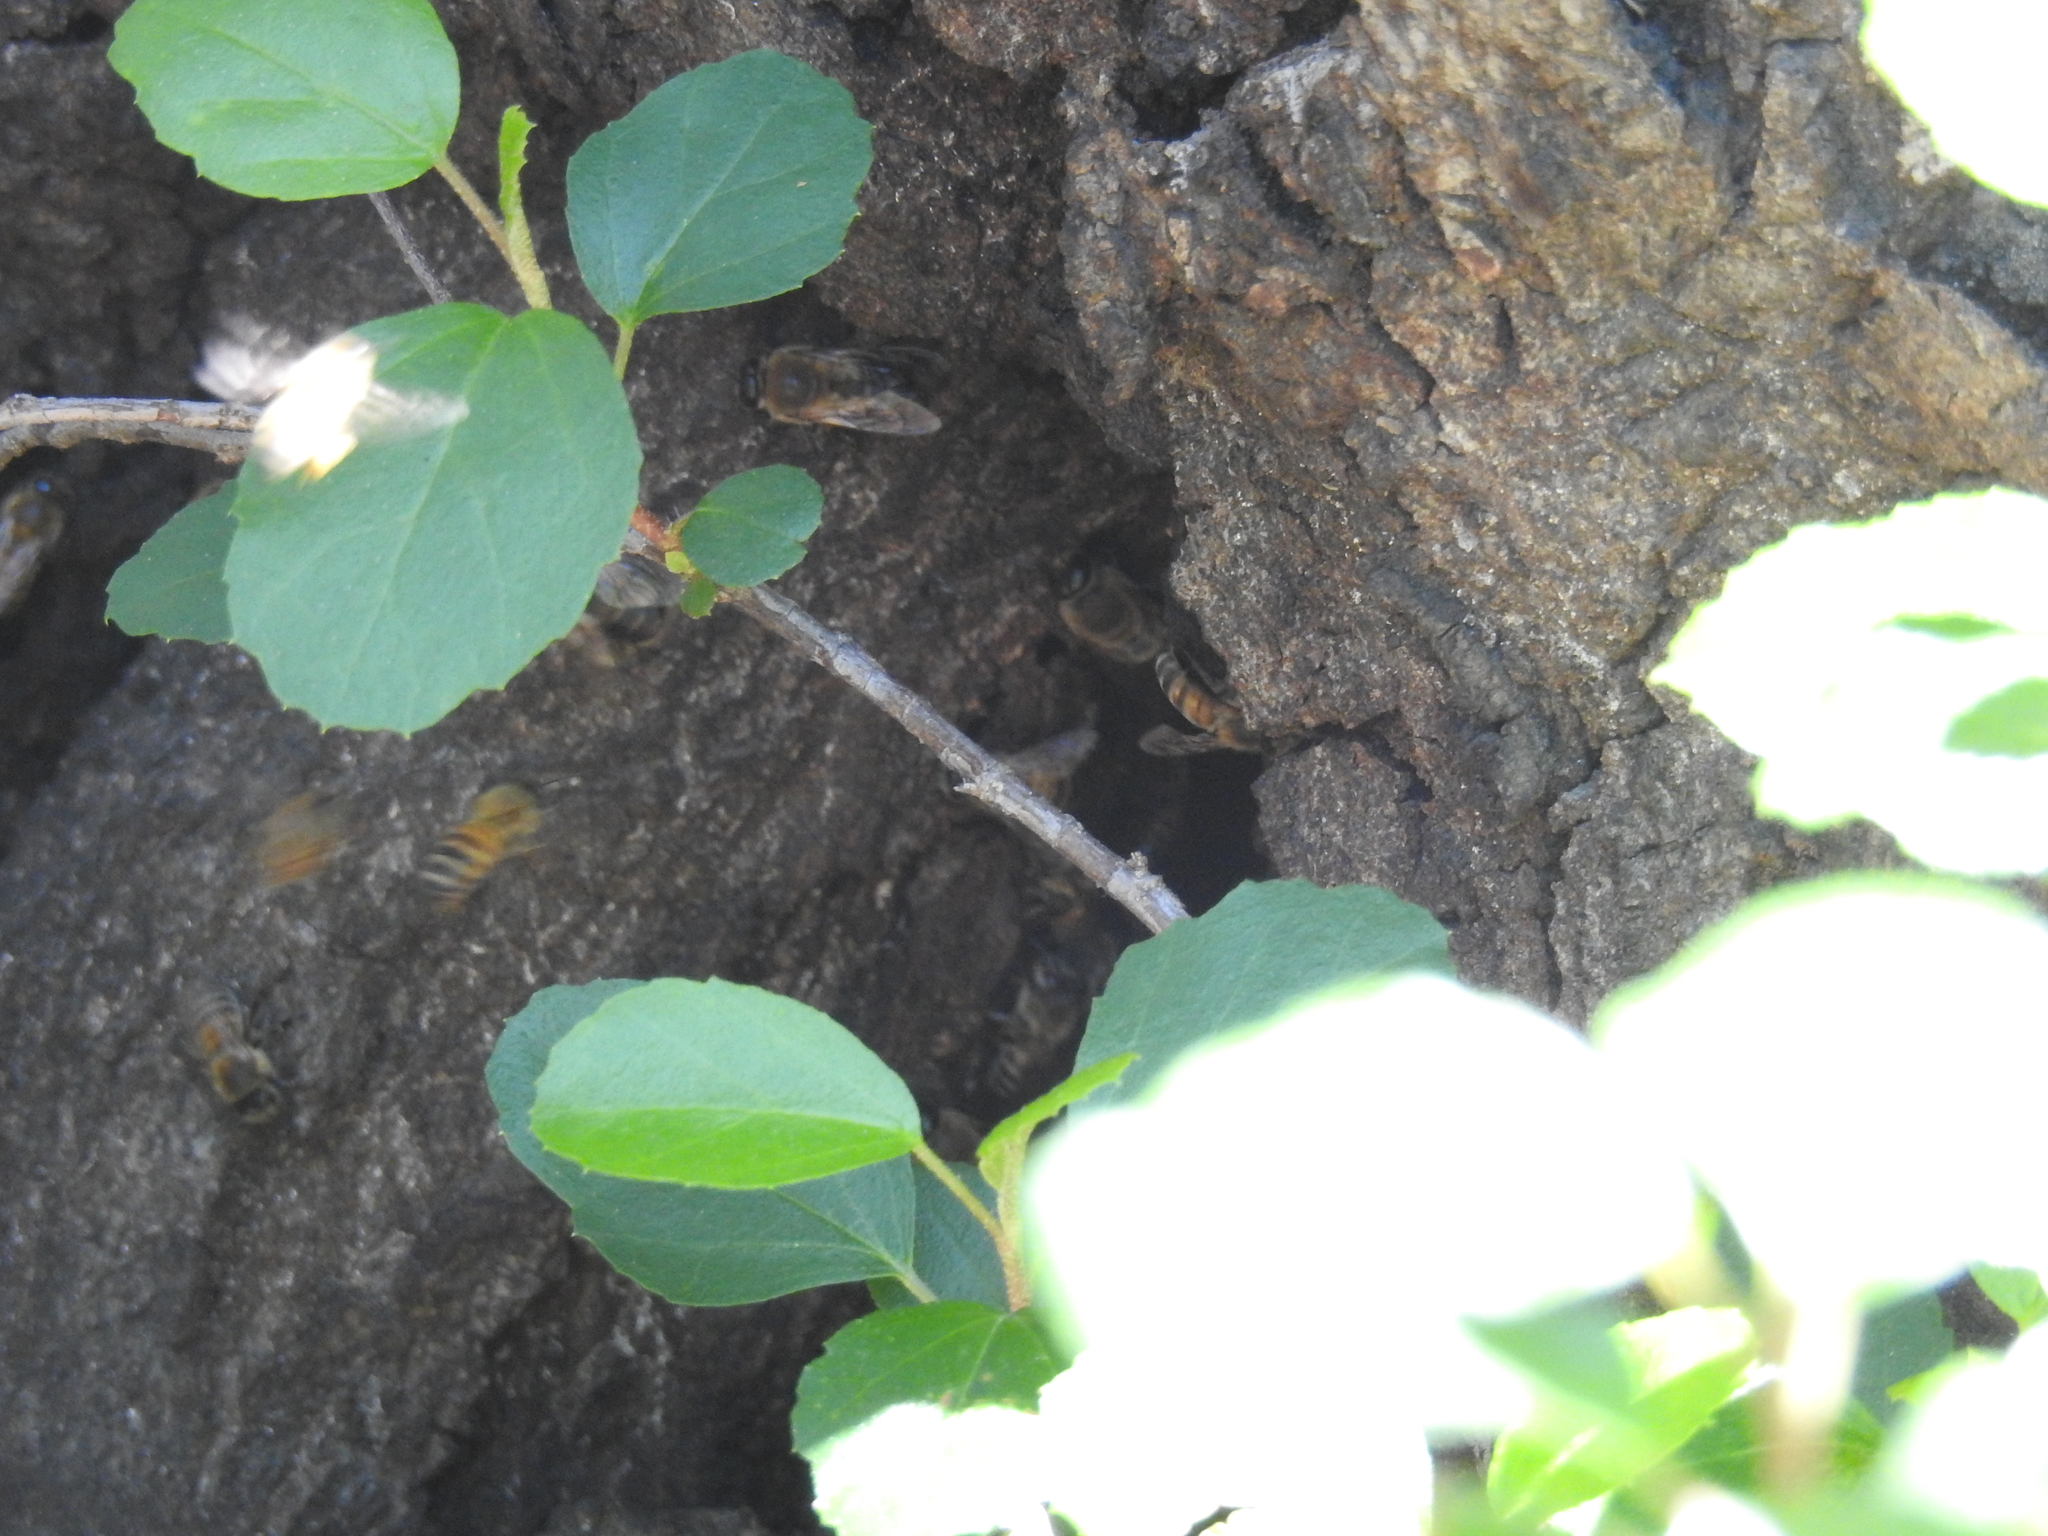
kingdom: Animalia
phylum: Arthropoda
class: Insecta
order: Hymenoptera
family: Apidae
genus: Apis
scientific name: Apis mellifera
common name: Honey bee
